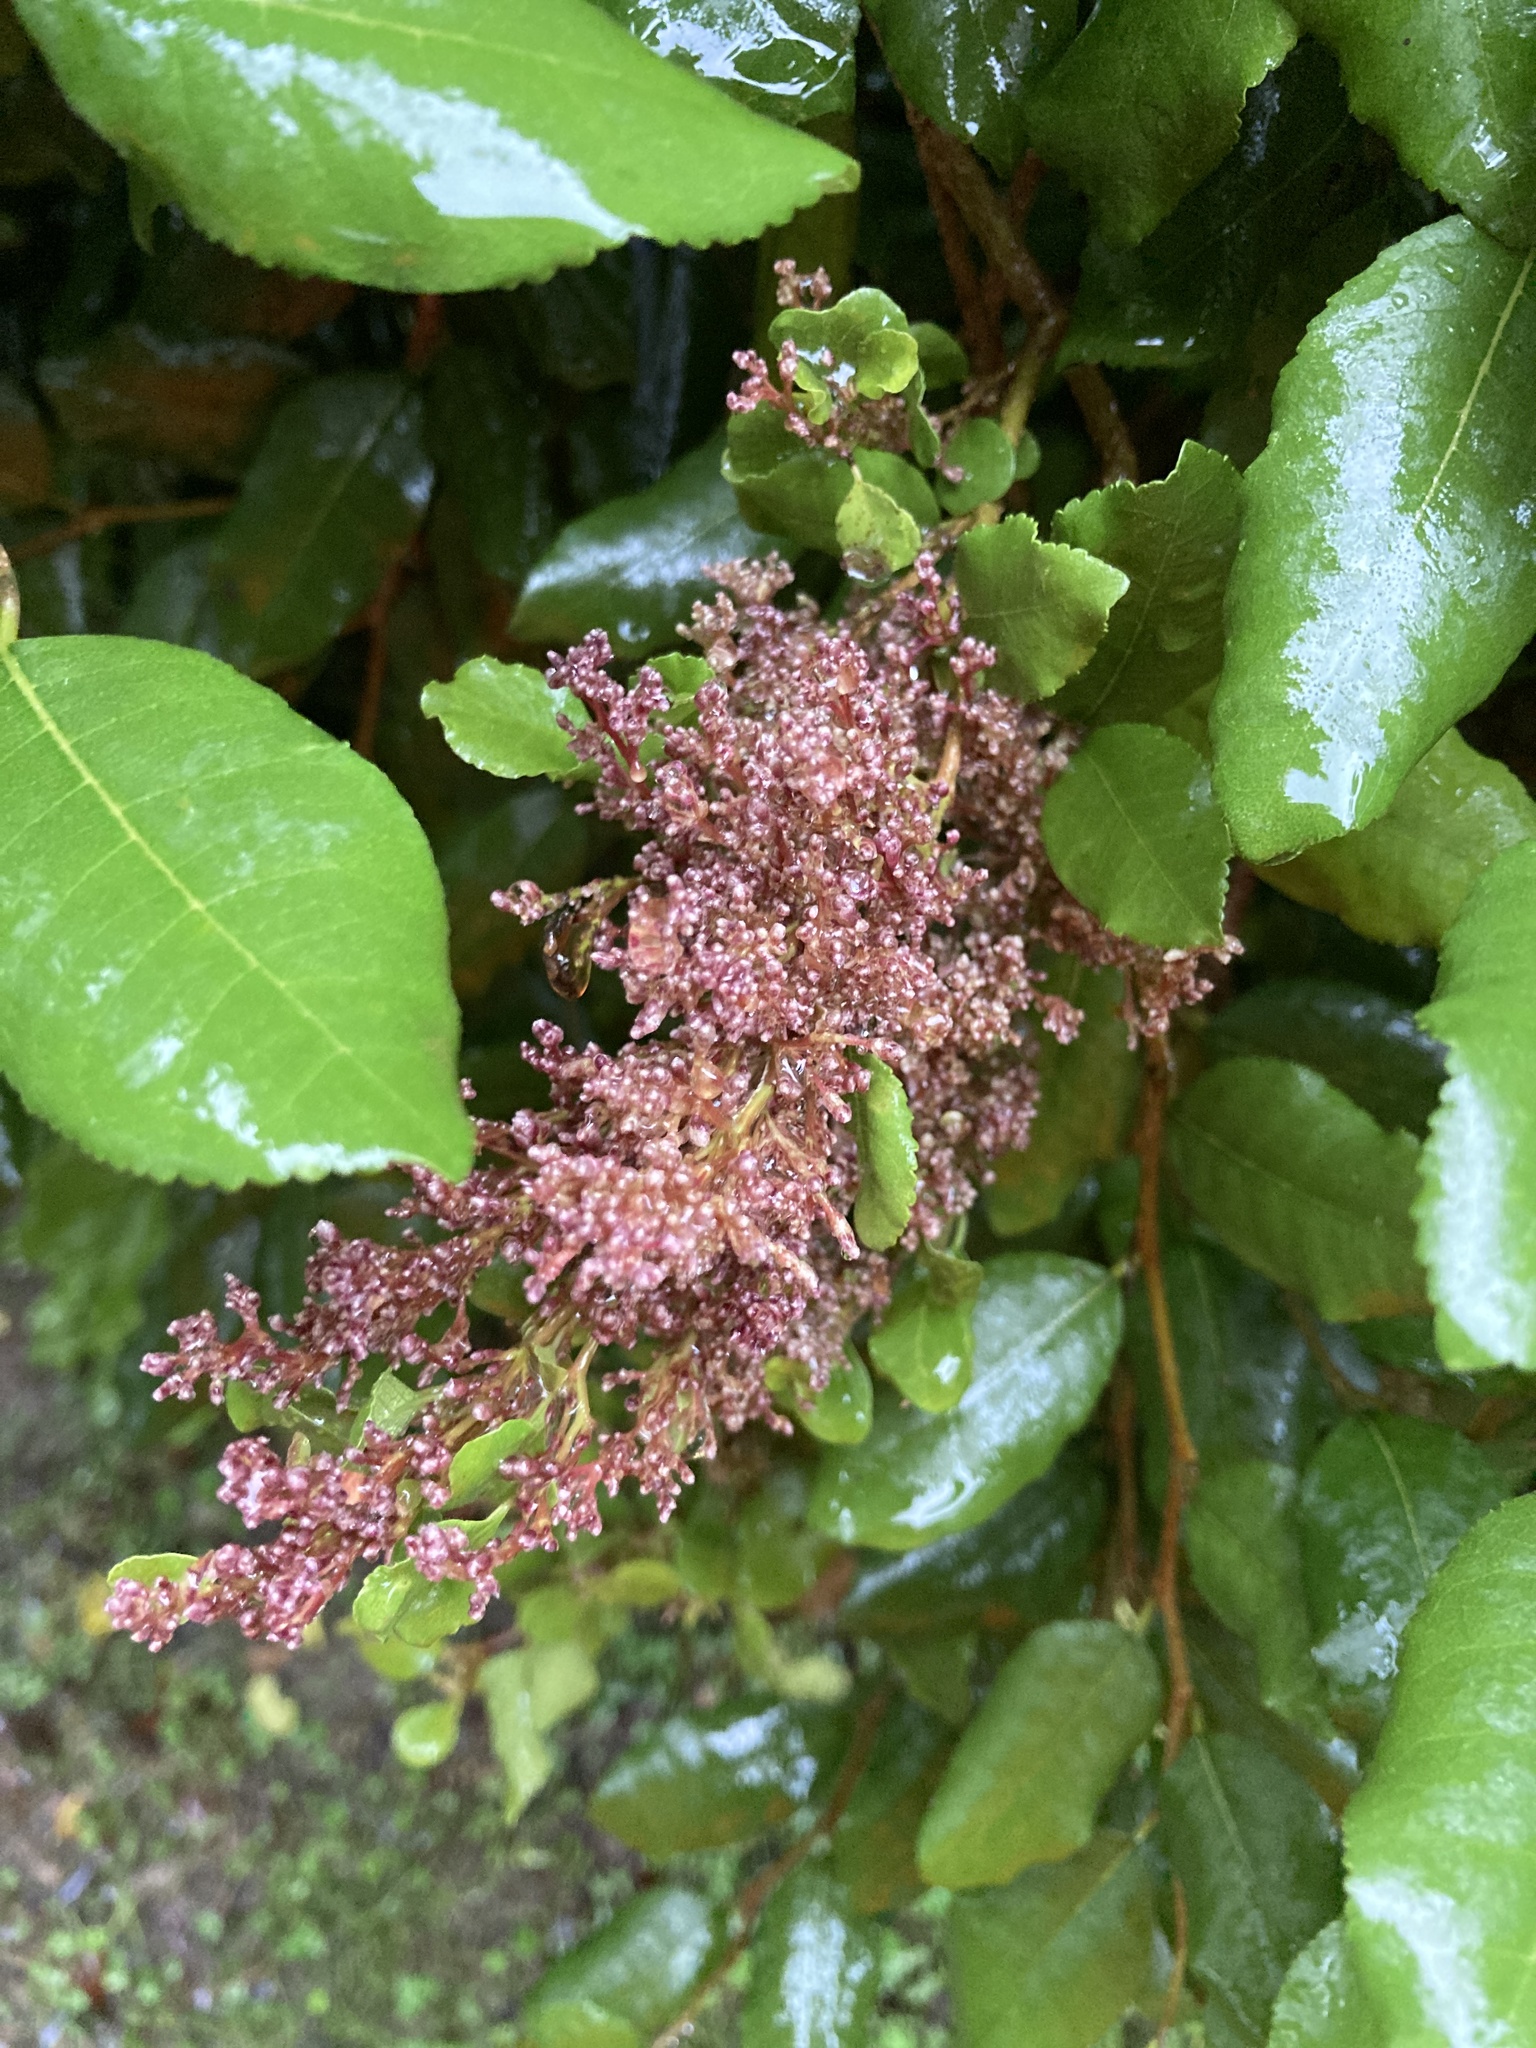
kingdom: Plantae
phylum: Tracheophyta
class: Magnoliopsida
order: Rosales
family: Moraceae
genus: Paratrophis
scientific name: Paratrophis banksii
